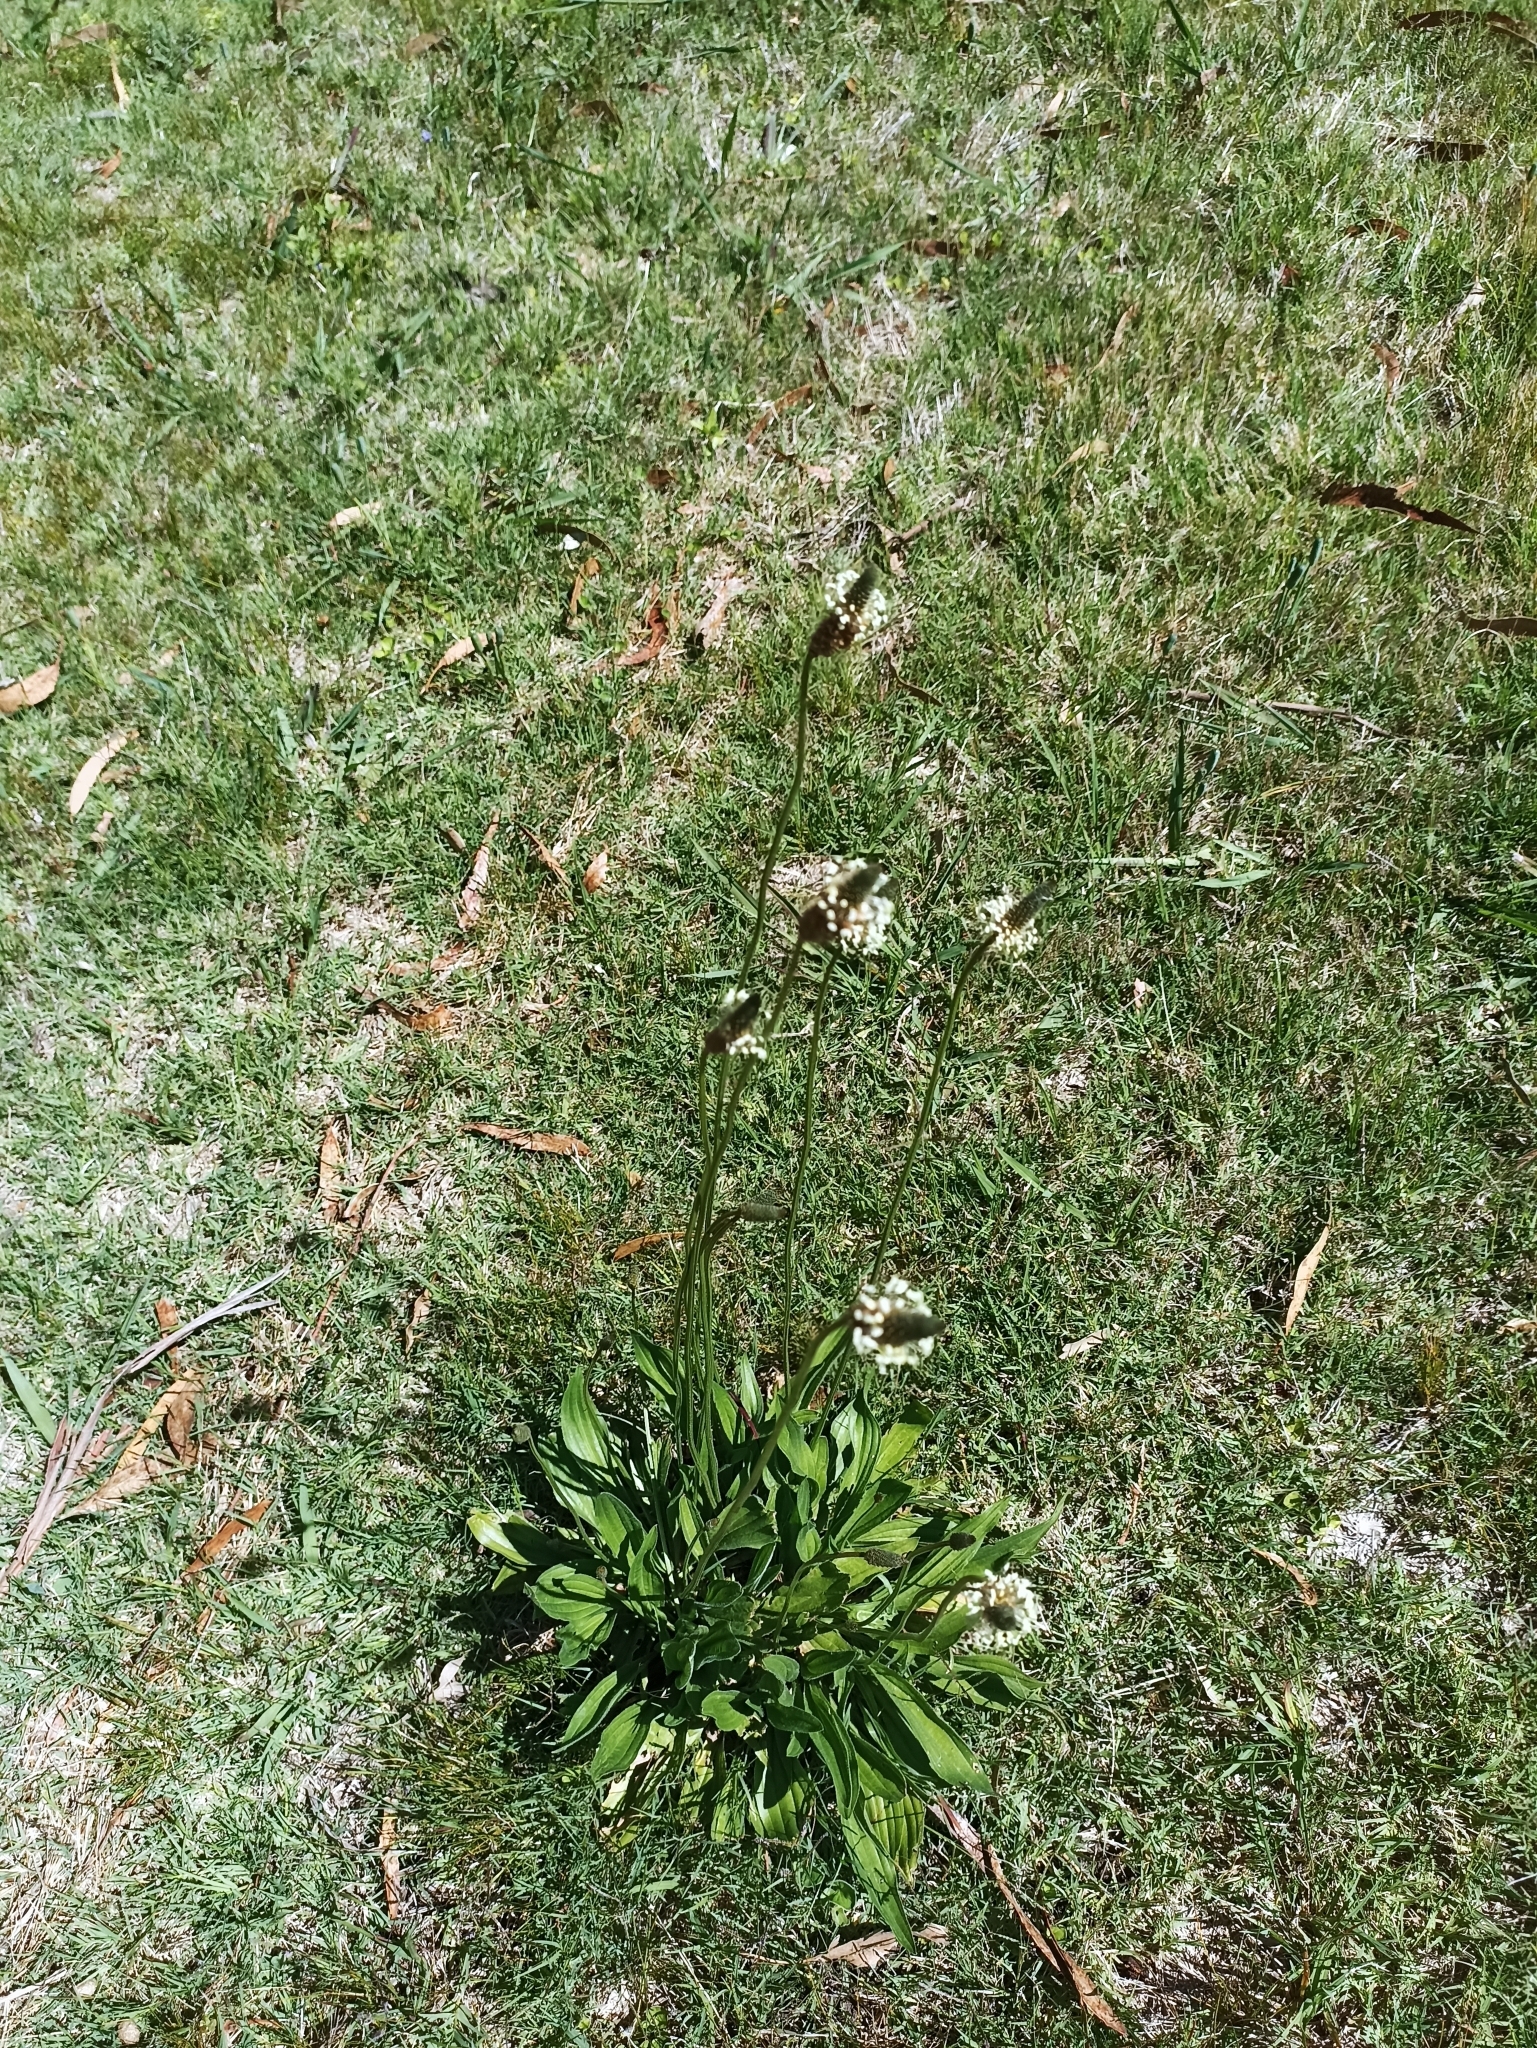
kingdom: Plantae
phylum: Tracheophyta
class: Magnoliopsida
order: Lamiales
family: Plantaginaceae
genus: Plantago
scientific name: Plantago lanceolata
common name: Ribwort plantain
